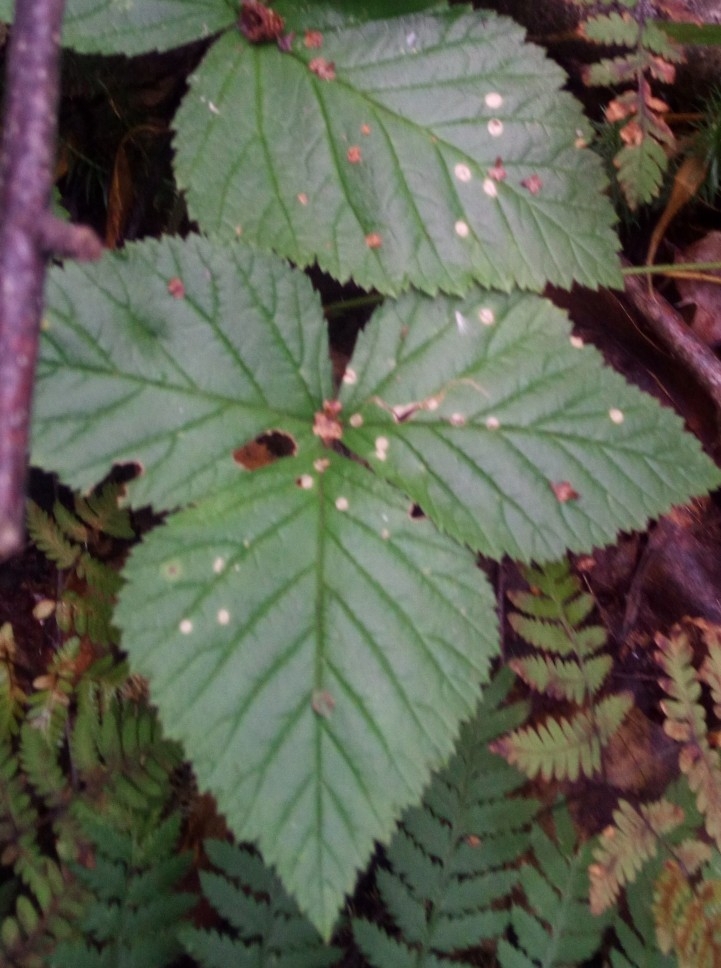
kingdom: Plantae
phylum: Tracheophyta
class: Magnoliopsida
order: Rosales
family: Rosaceae
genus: Rubus
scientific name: Rubus saxatilis
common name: Stone bramble
